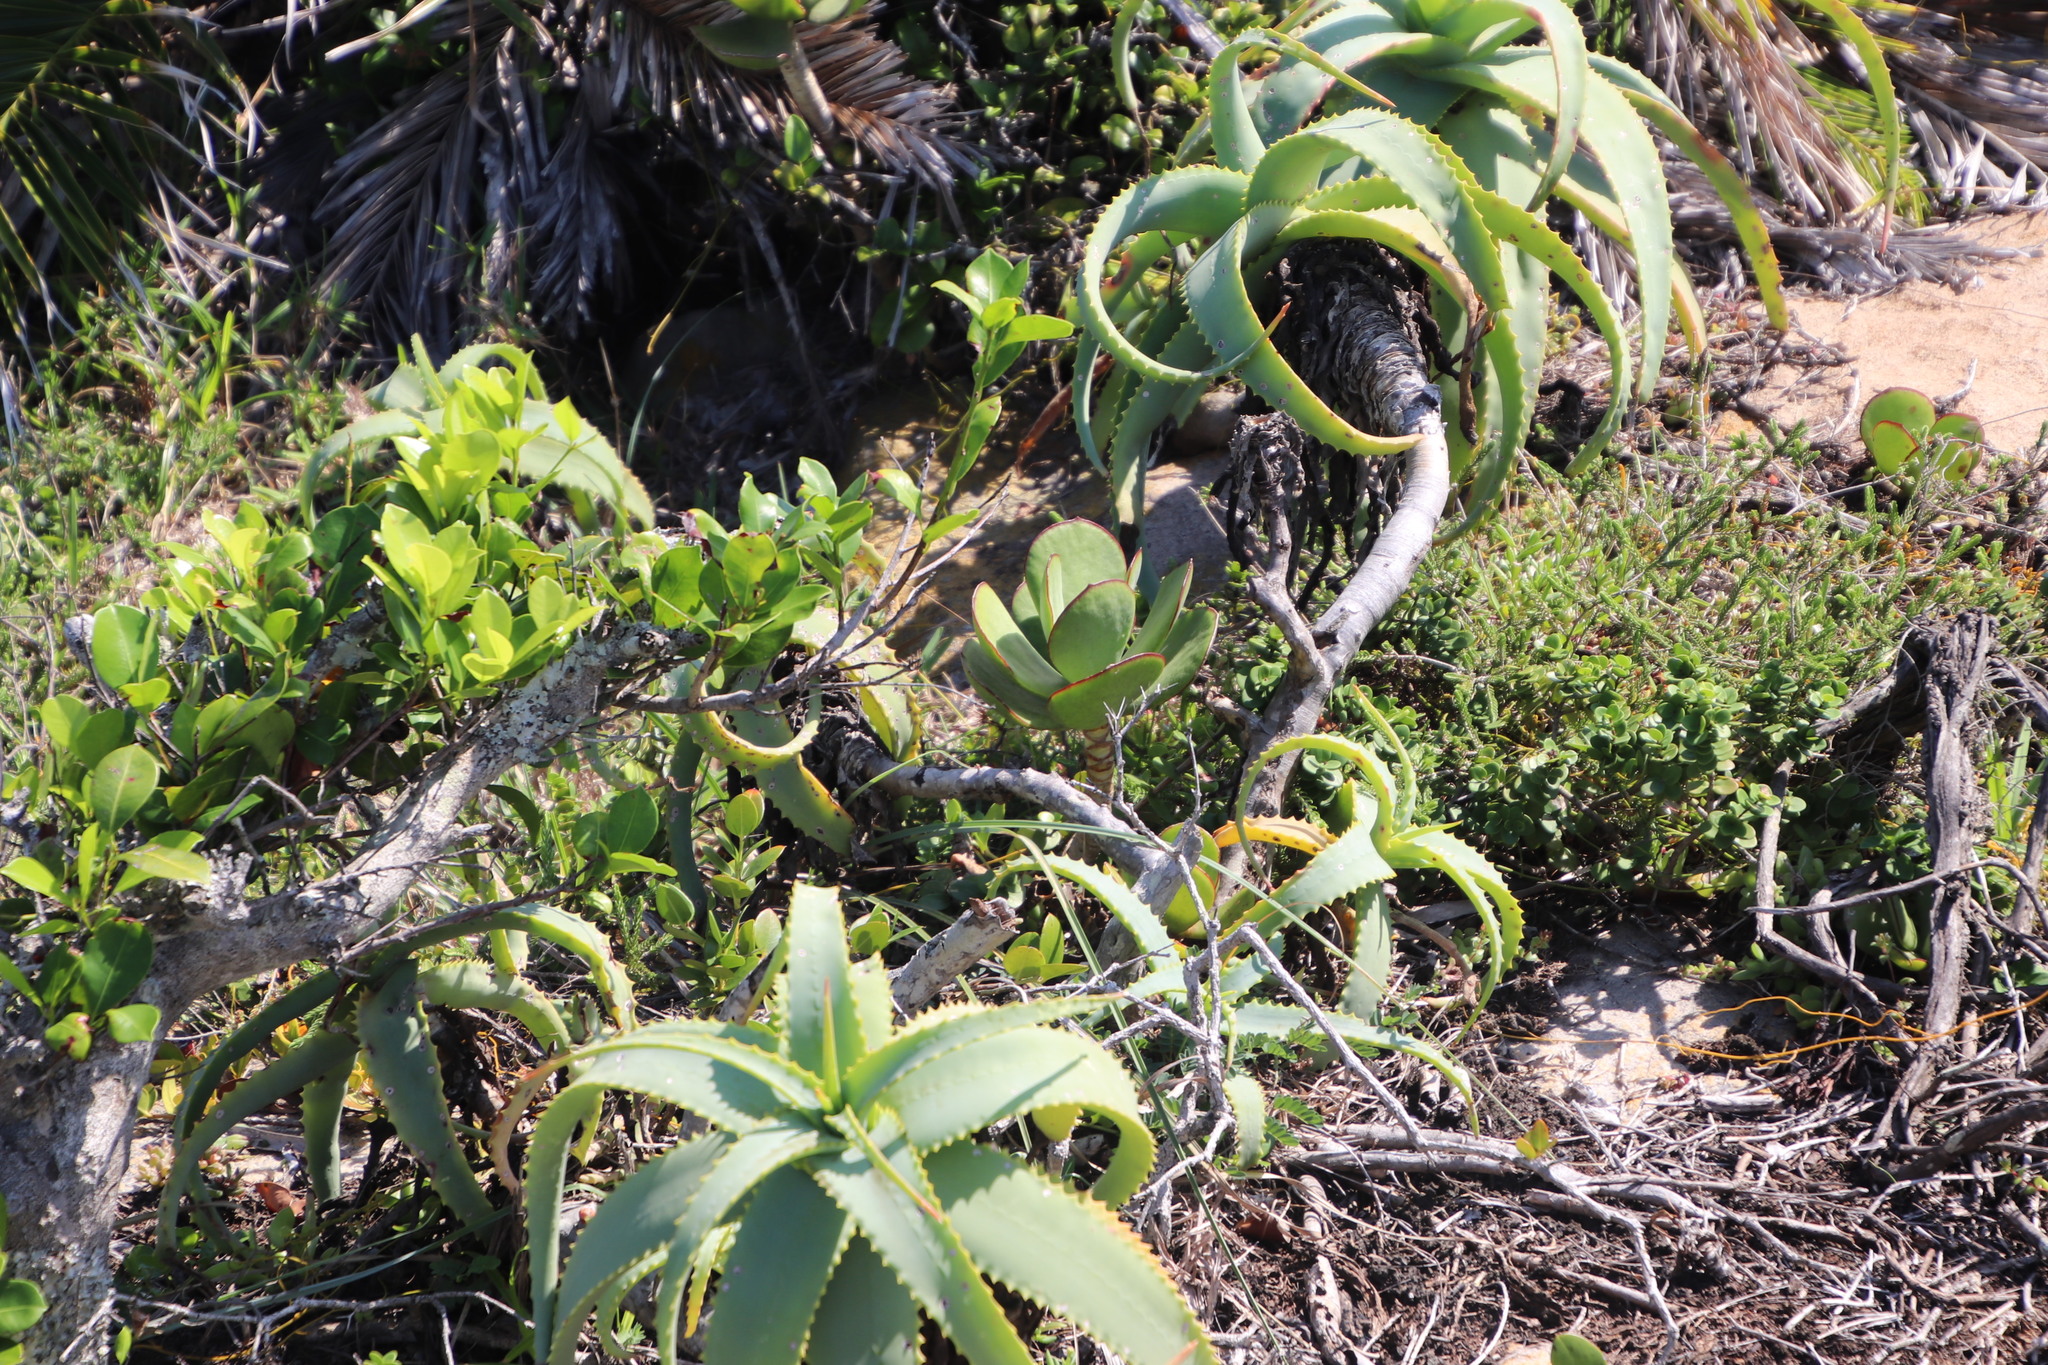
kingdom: Plantae
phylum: Tracheophyta
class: Magnoliopsida
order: Saxifragales
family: Crassulaceae
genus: Cotyledon
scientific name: Cotyledon orbiculata
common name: Pig's ear
